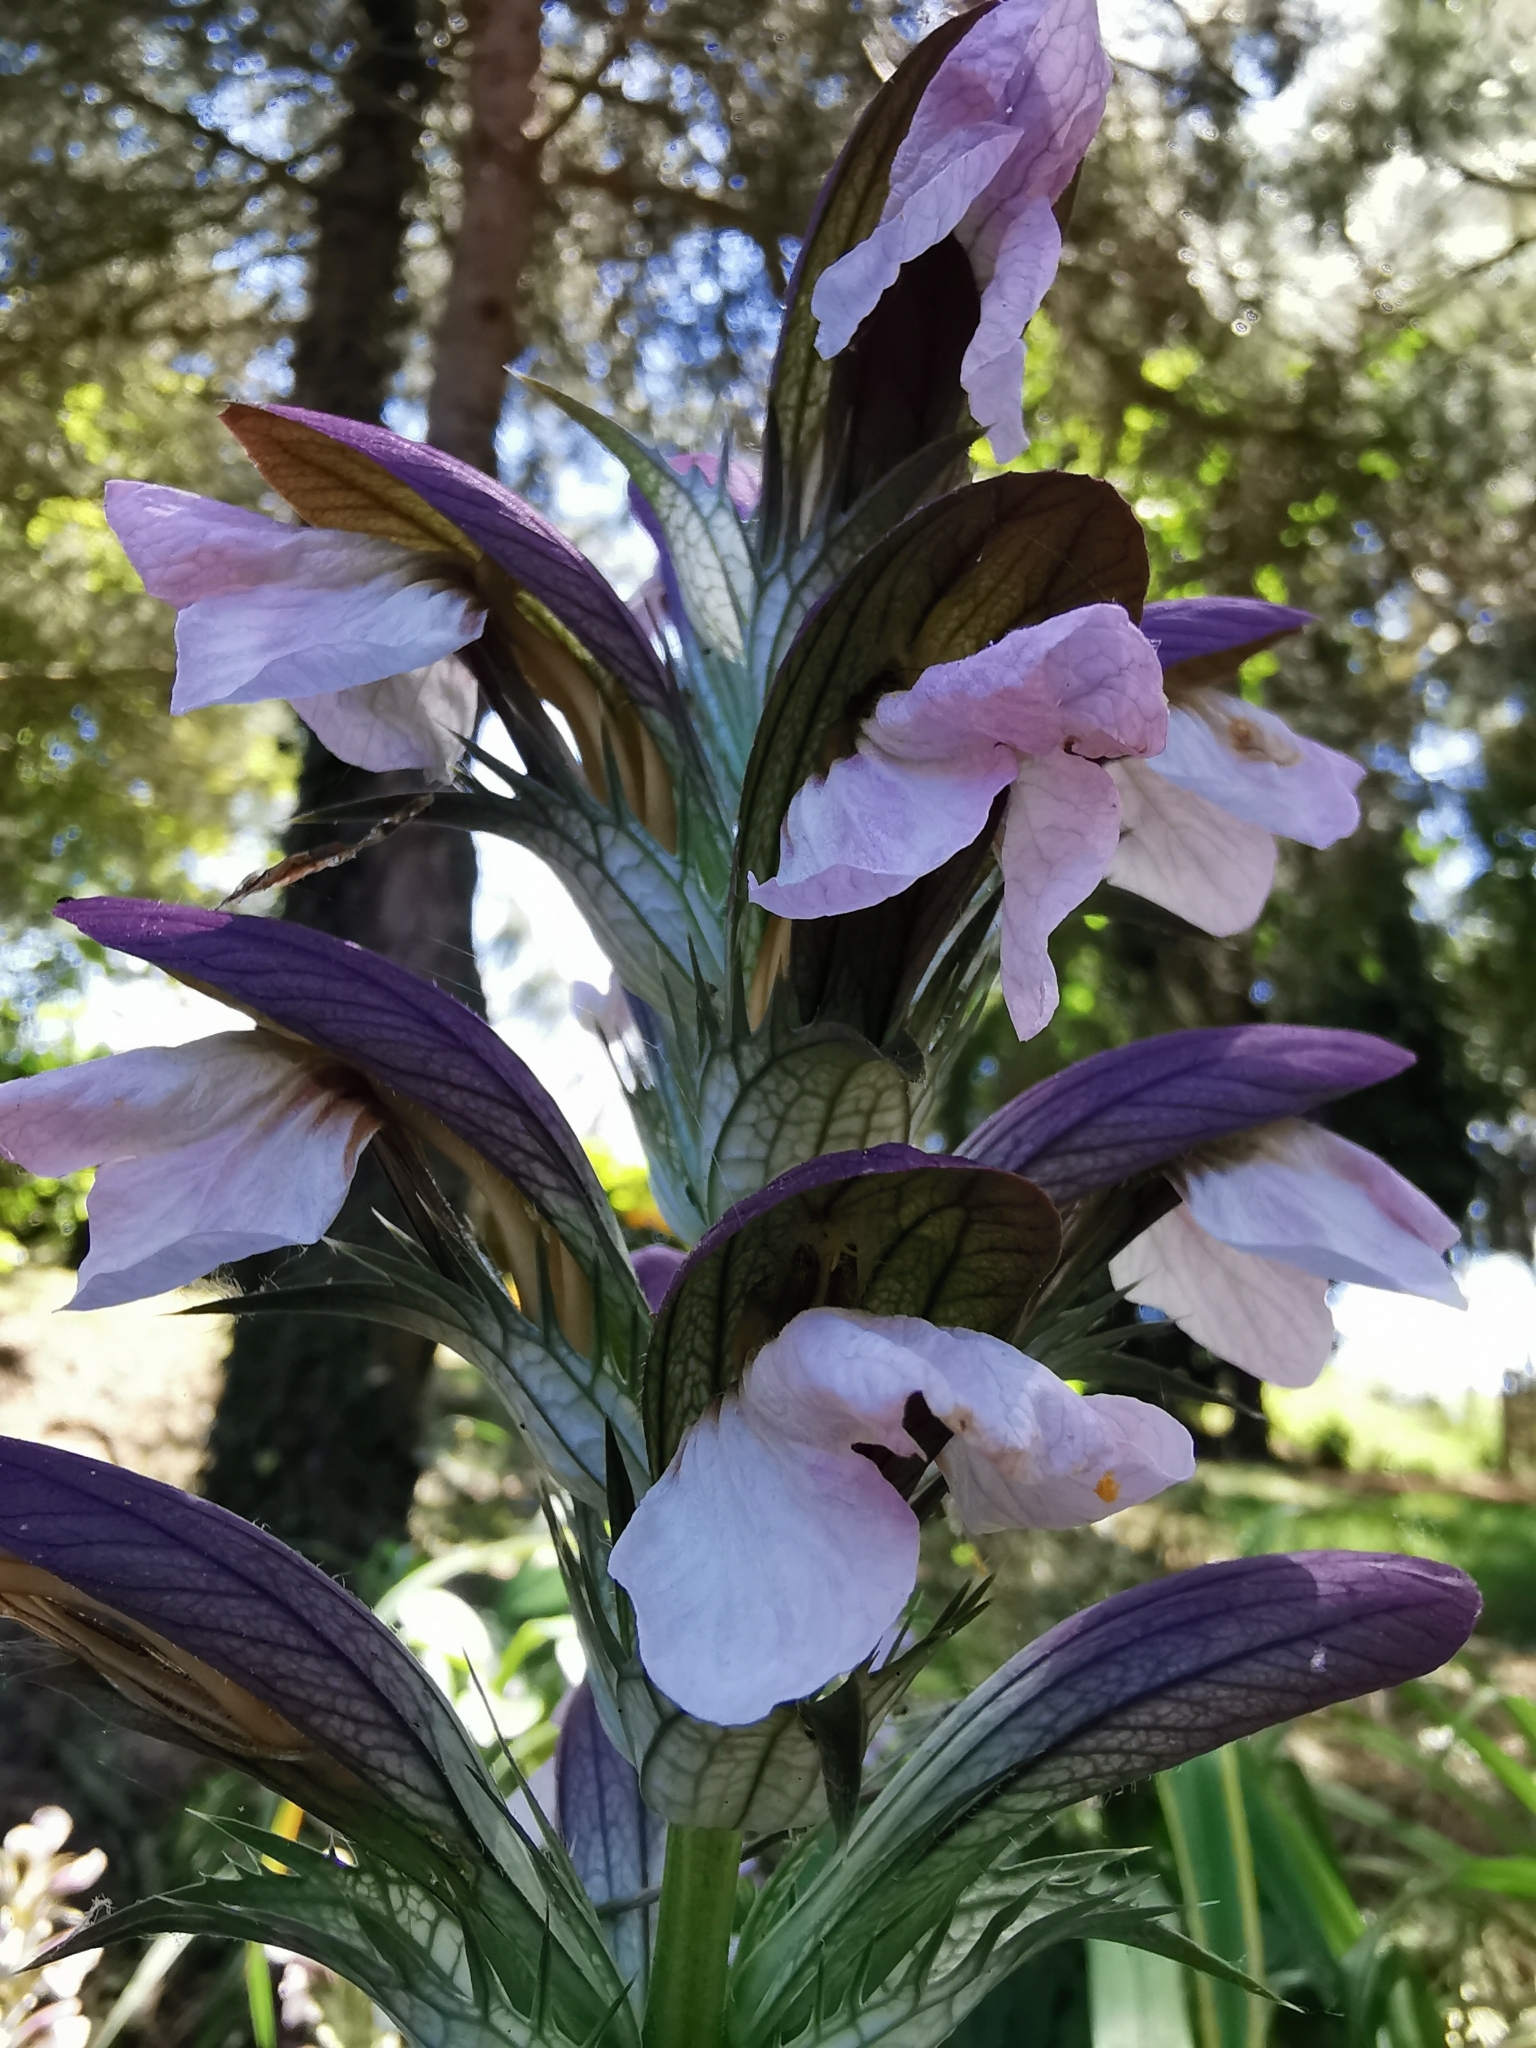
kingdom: Plantae
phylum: Tracheophyta
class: Magnoliopsida
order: Lamiales
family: Acanthaceae
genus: Acanthus
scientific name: Acanthus mollis
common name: Bear's-breech
